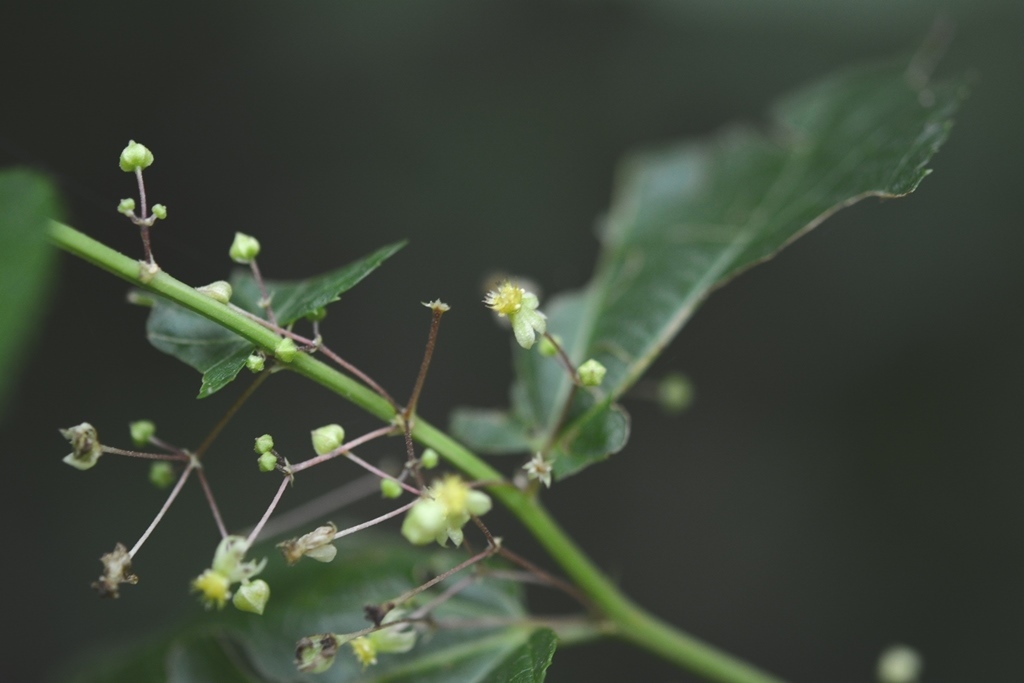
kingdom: Plantae
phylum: Tracheophyta
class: Magnoliopsida
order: Malvales
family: Malvaceae
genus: Ayenia
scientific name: Ayenia micrantha
